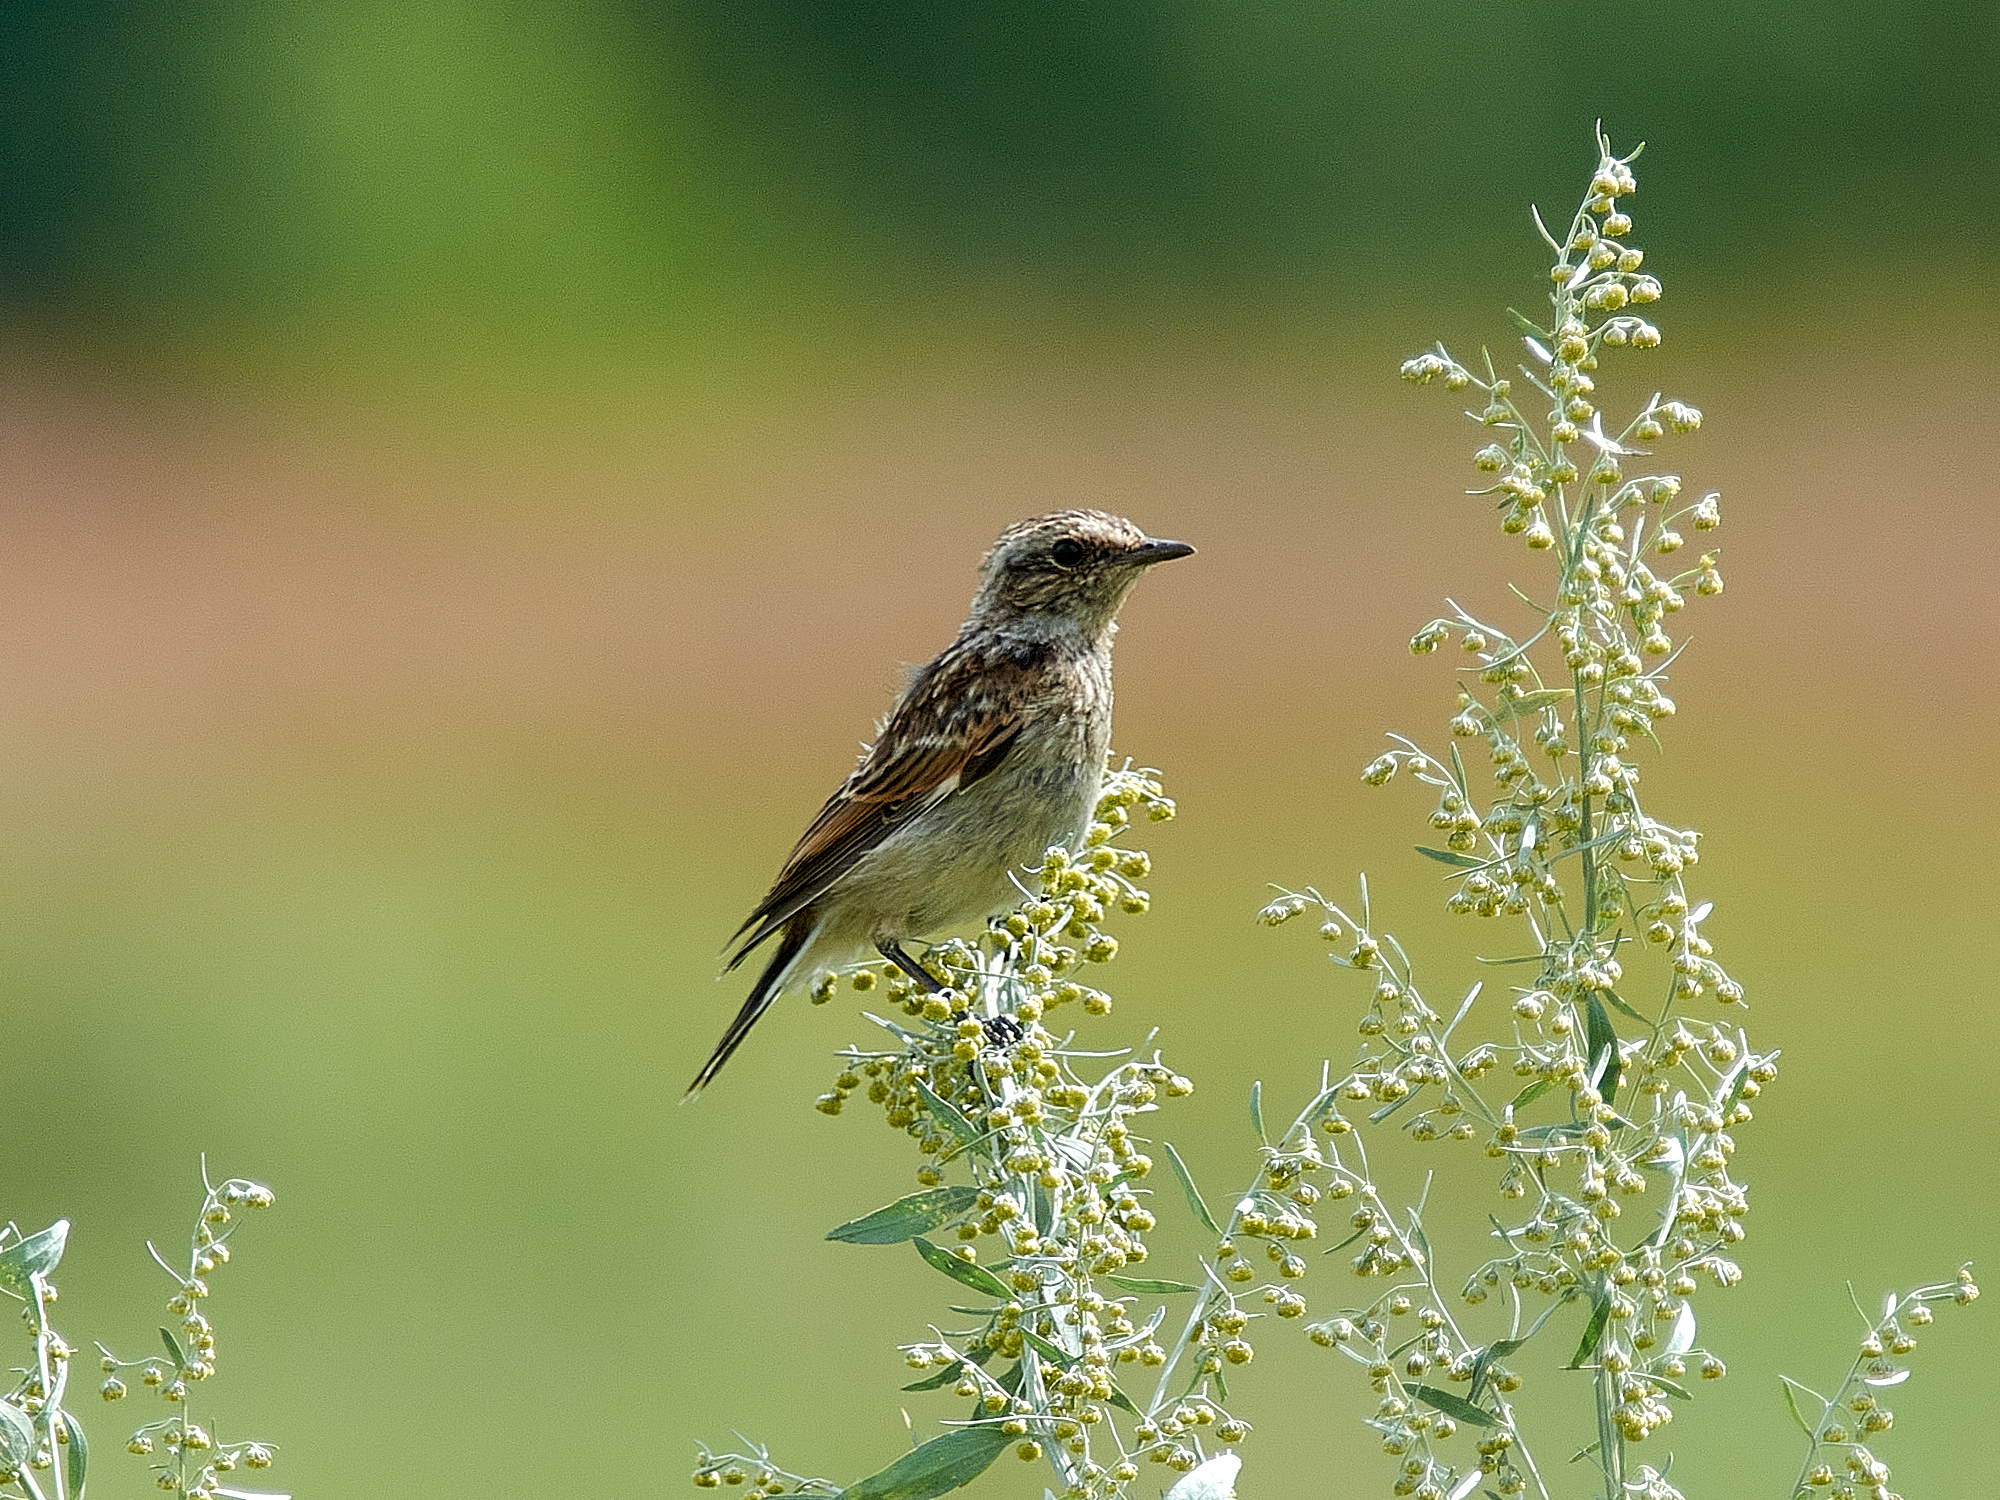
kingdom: Animalia
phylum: Chordata
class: Aves
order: Passeriformes
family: Muscicapidae
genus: Saxicola
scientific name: Saxicola rubetra
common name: Whinchat
